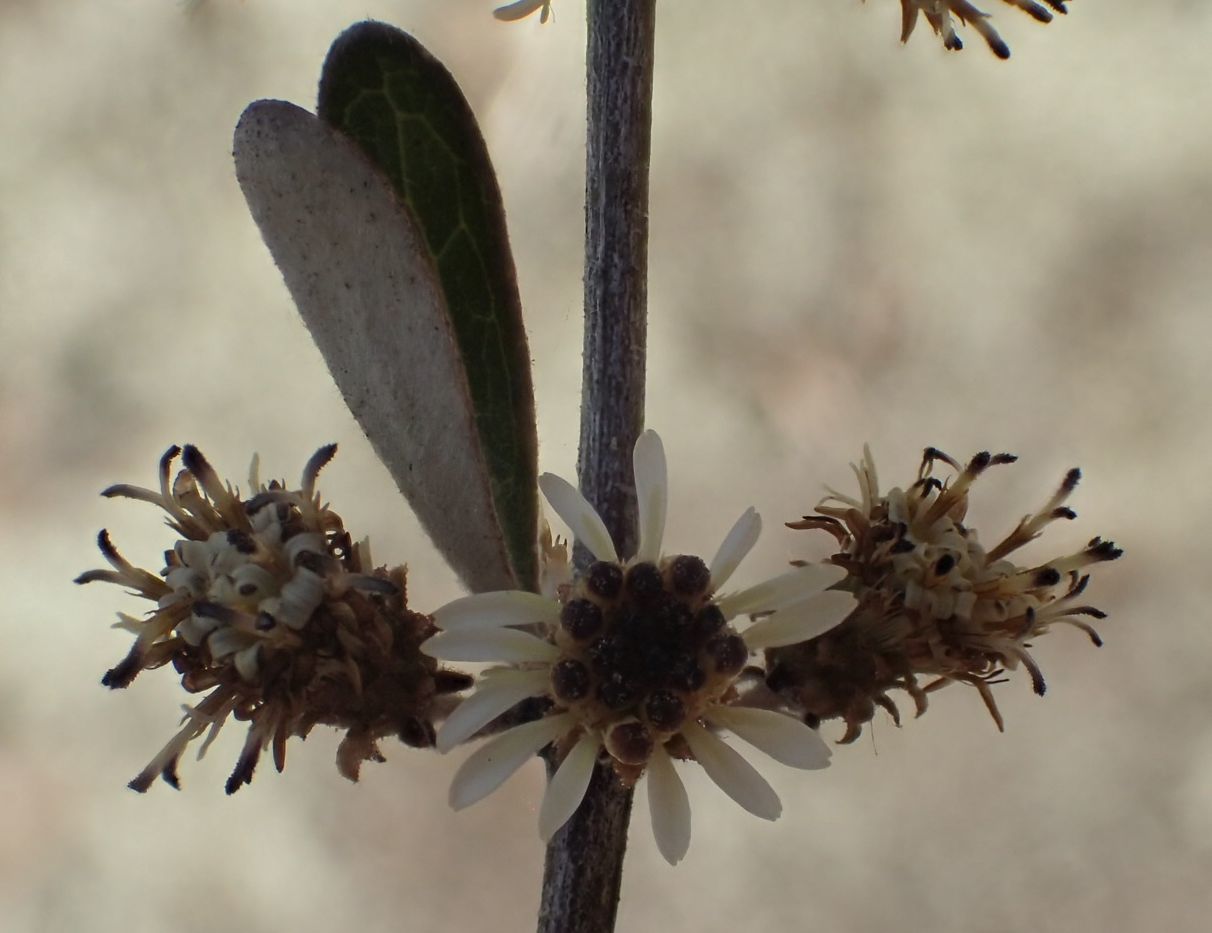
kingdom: Plantae
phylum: Tracheophyta
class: Magnoliopsida
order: Asterales
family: Asteraceae
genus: Olearia
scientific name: Olearia odorata
